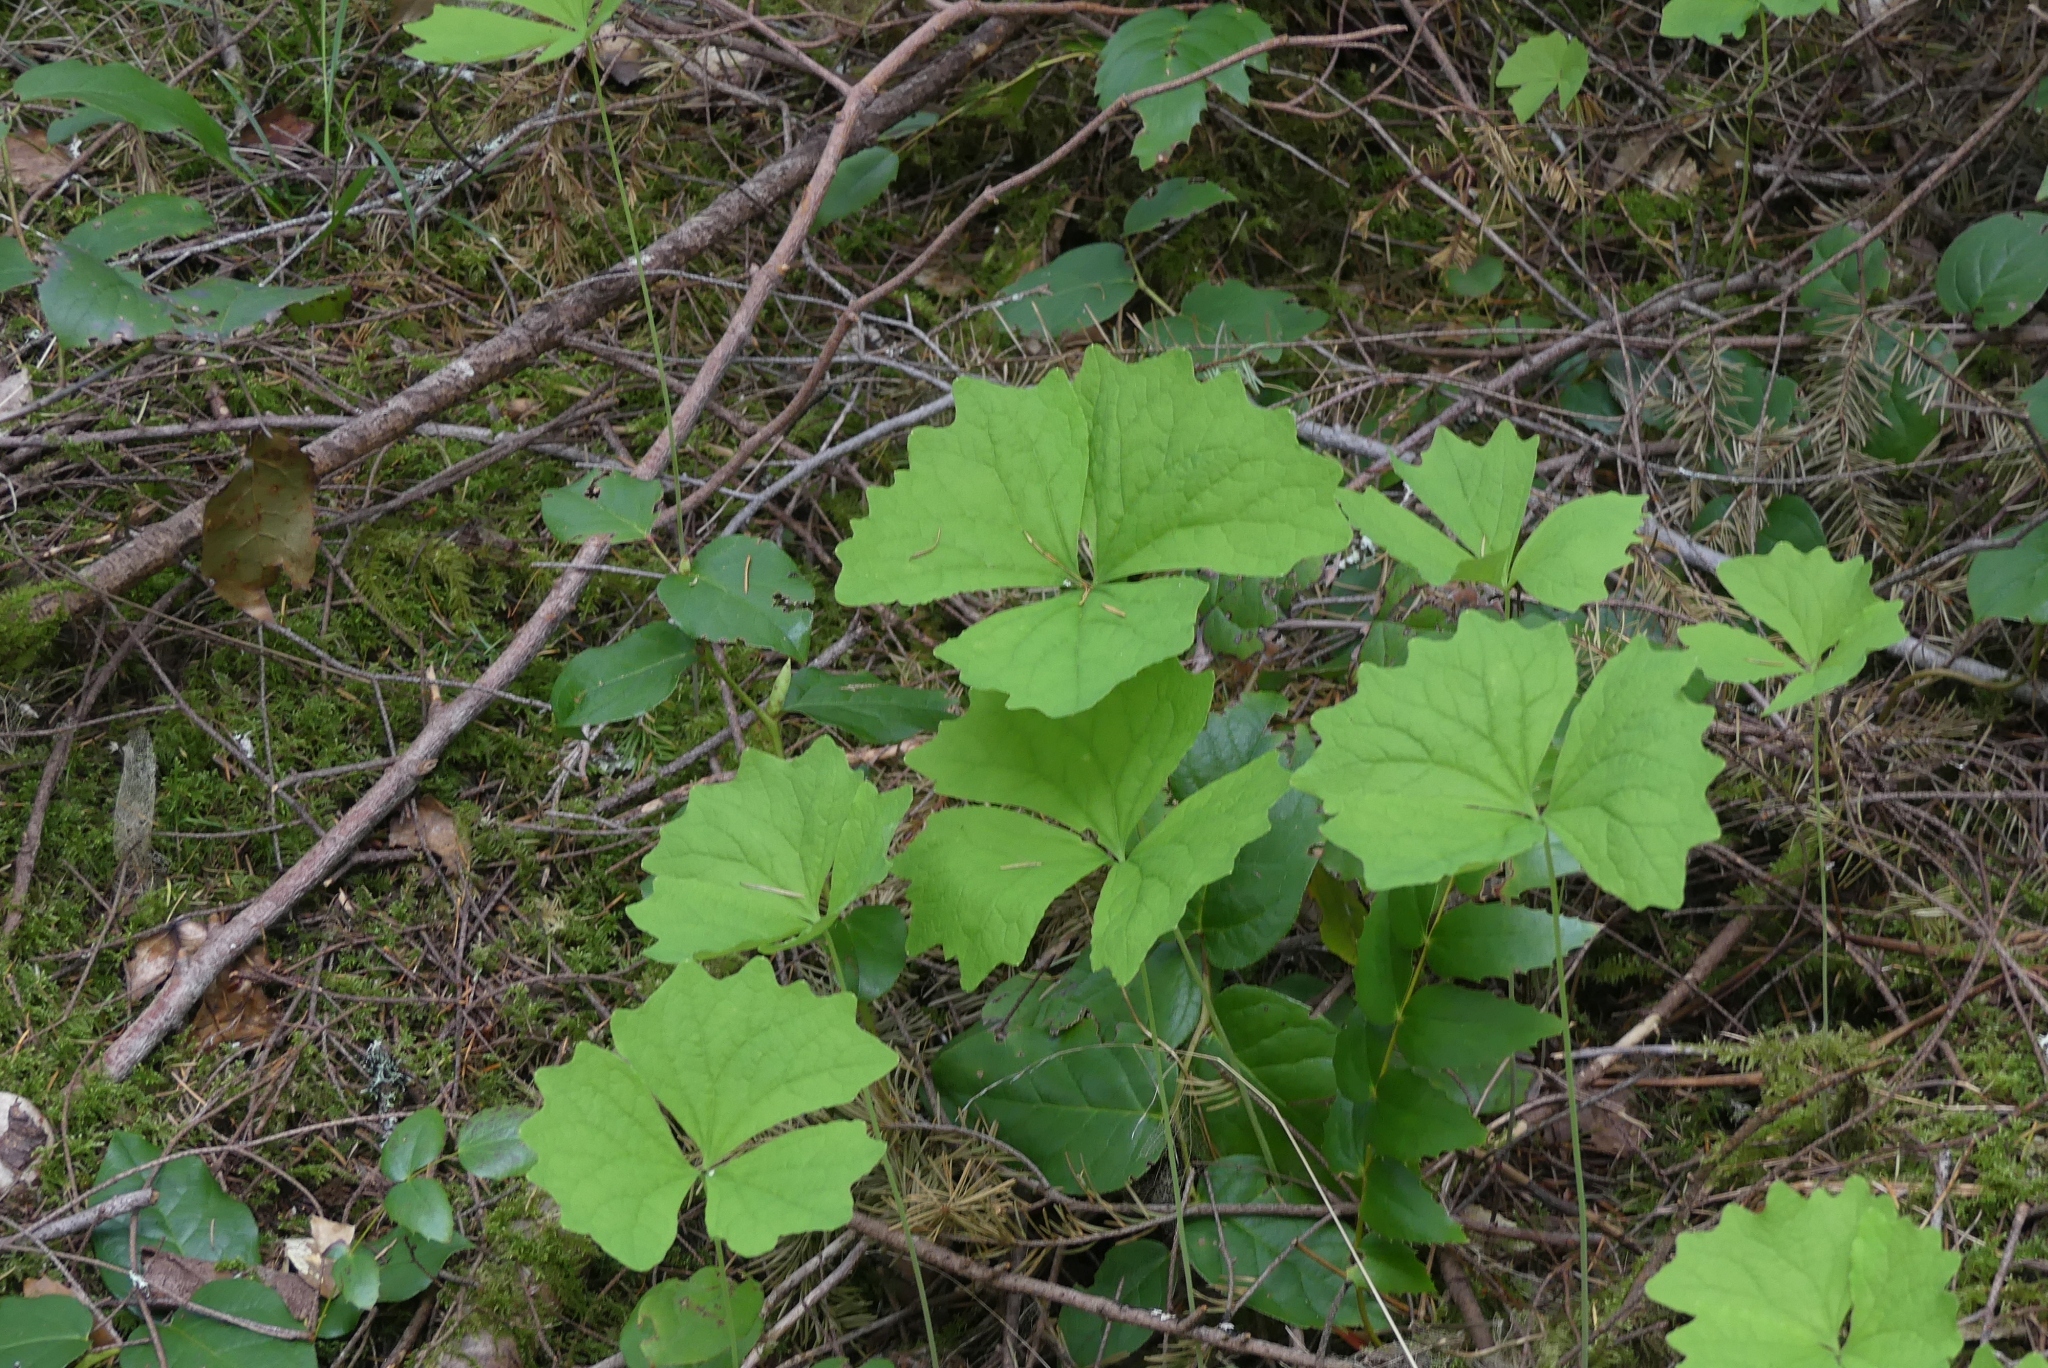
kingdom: Plantae
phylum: Tracheophyta
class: Magnoliopsida
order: Ranunculales
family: Berberidaceae
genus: Achlys
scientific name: Achlys triphylla
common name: Vanilla-leaf
